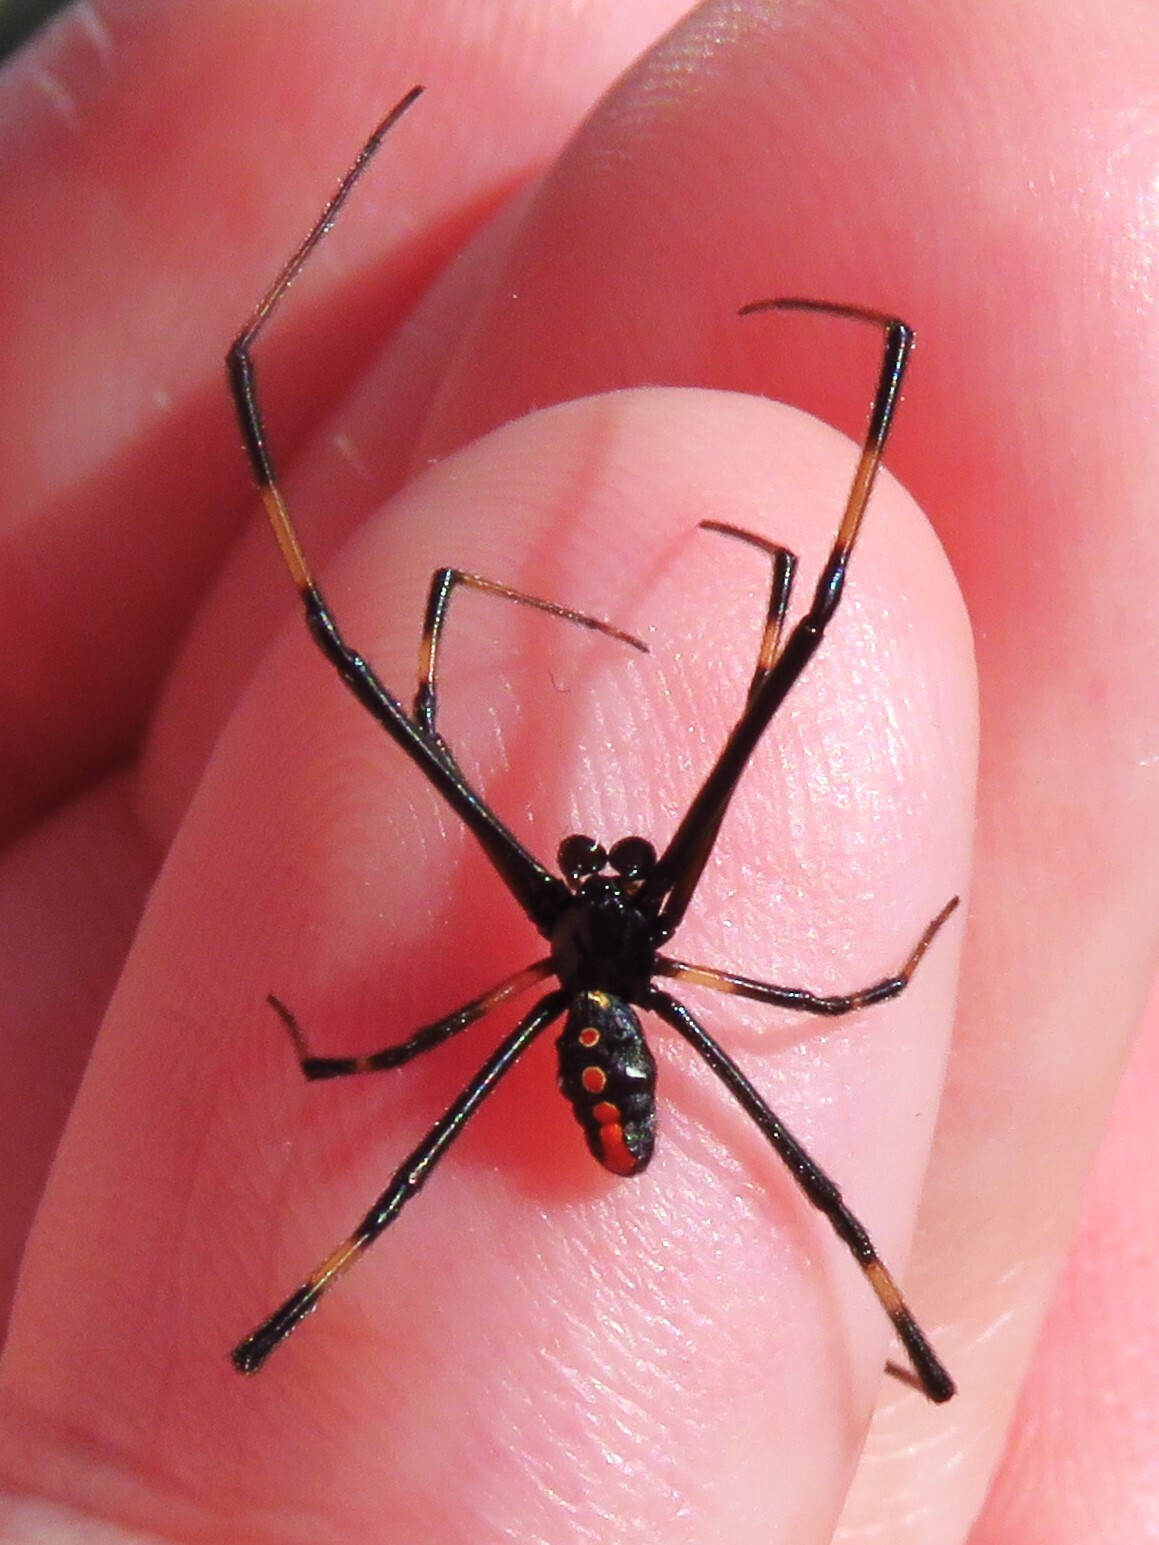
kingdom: Animalia
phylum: Arthropoda
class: Arachnida
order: Araneae
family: Theridiidae
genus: Latrodectus
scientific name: Latrodectus mactans
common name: Cobweb spiders
